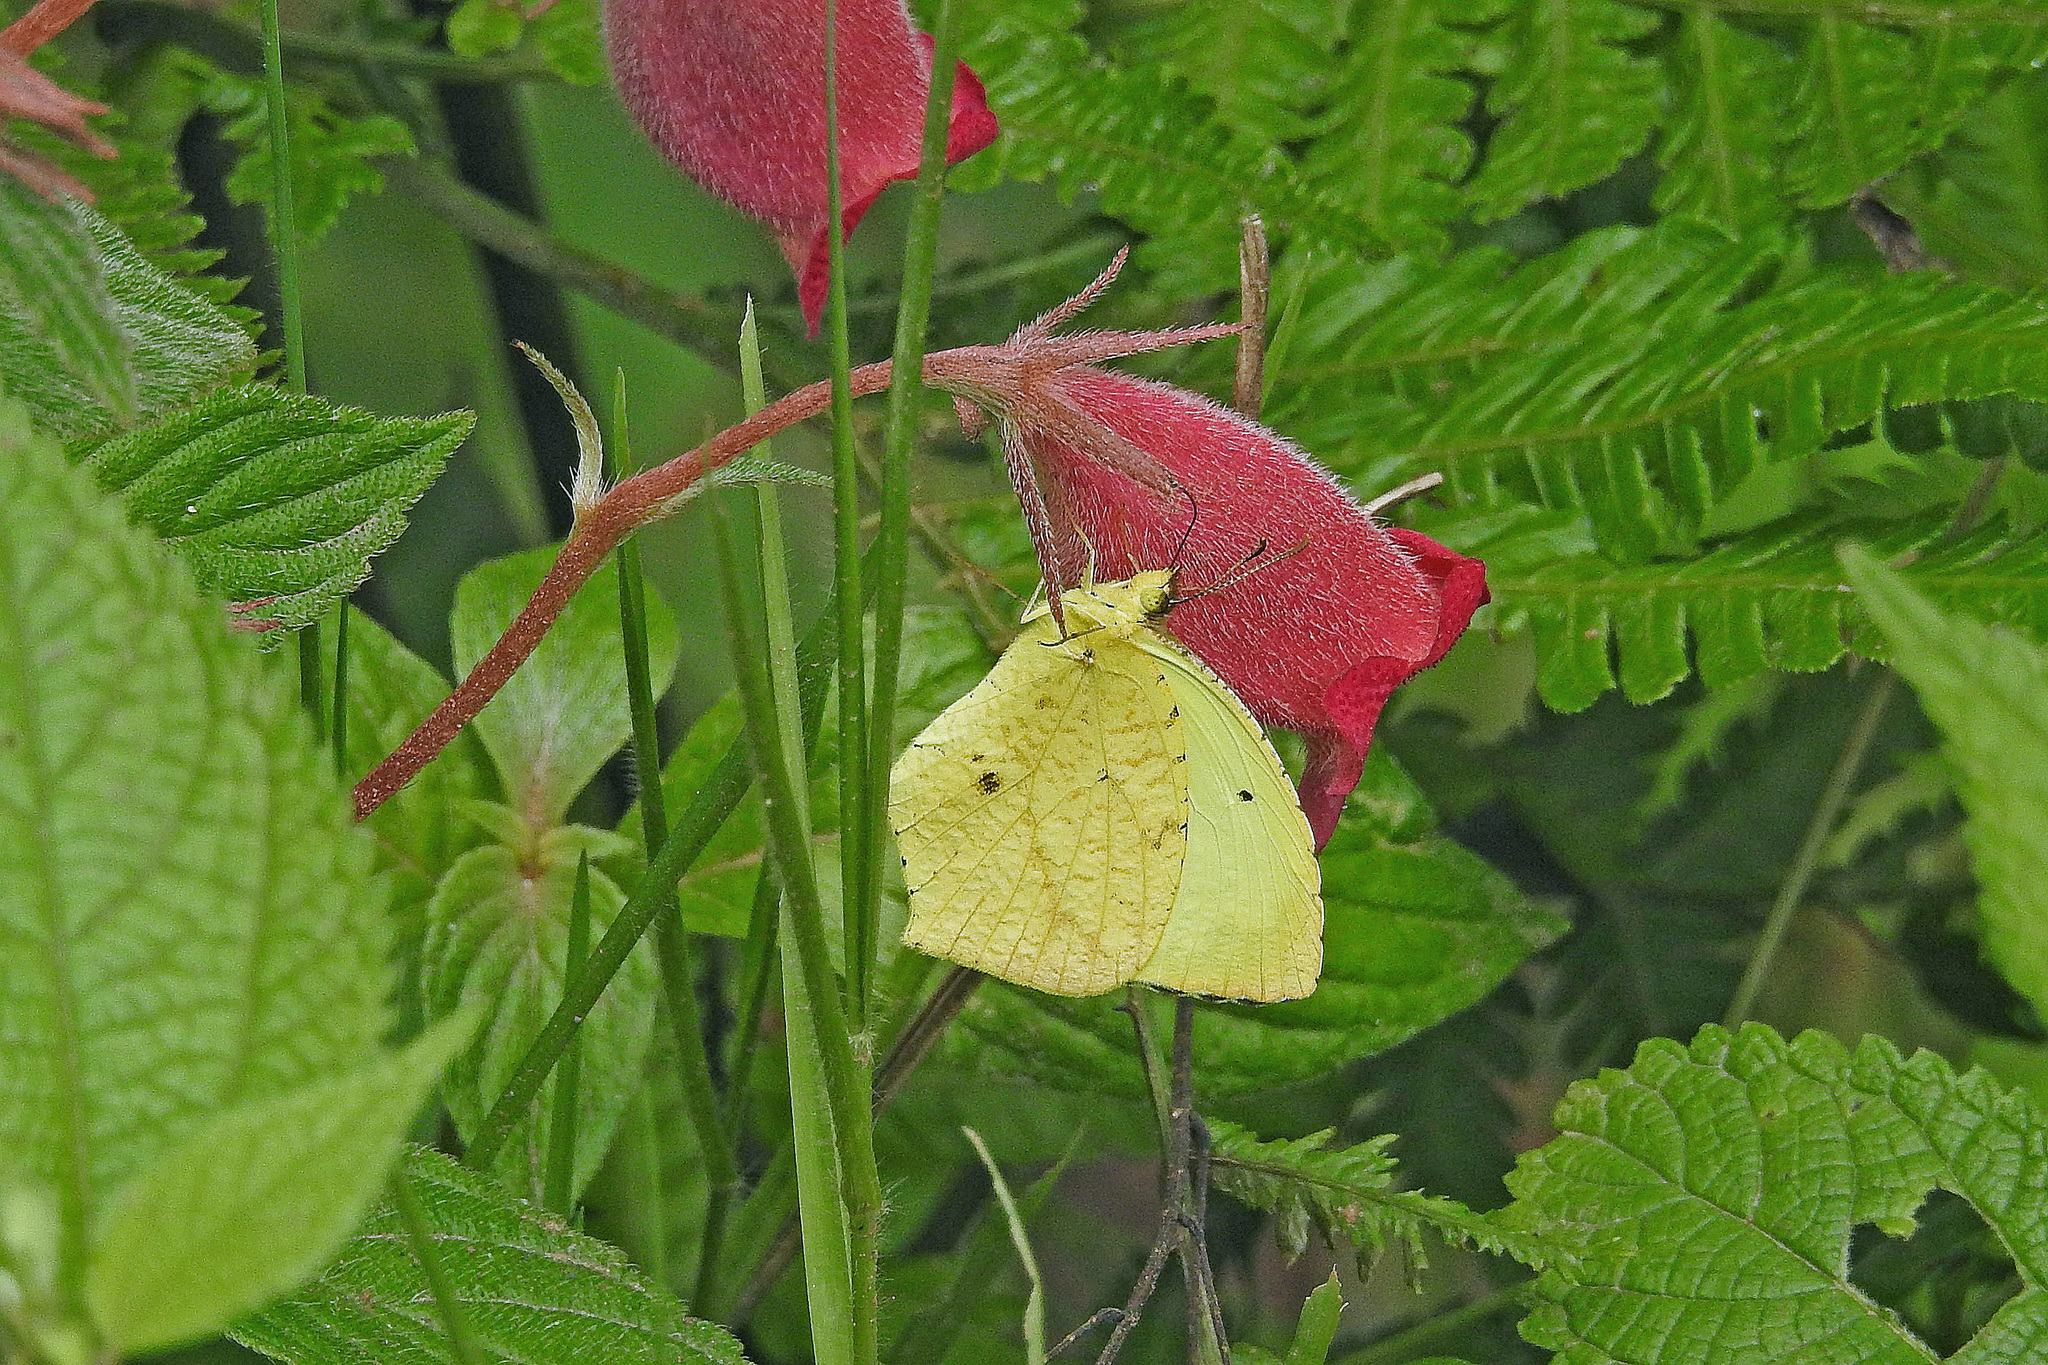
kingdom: Animalia
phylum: Arthropoda
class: Insecta
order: Lepidoptera
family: Pieridae
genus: Abaeis
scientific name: Abaeis salome
